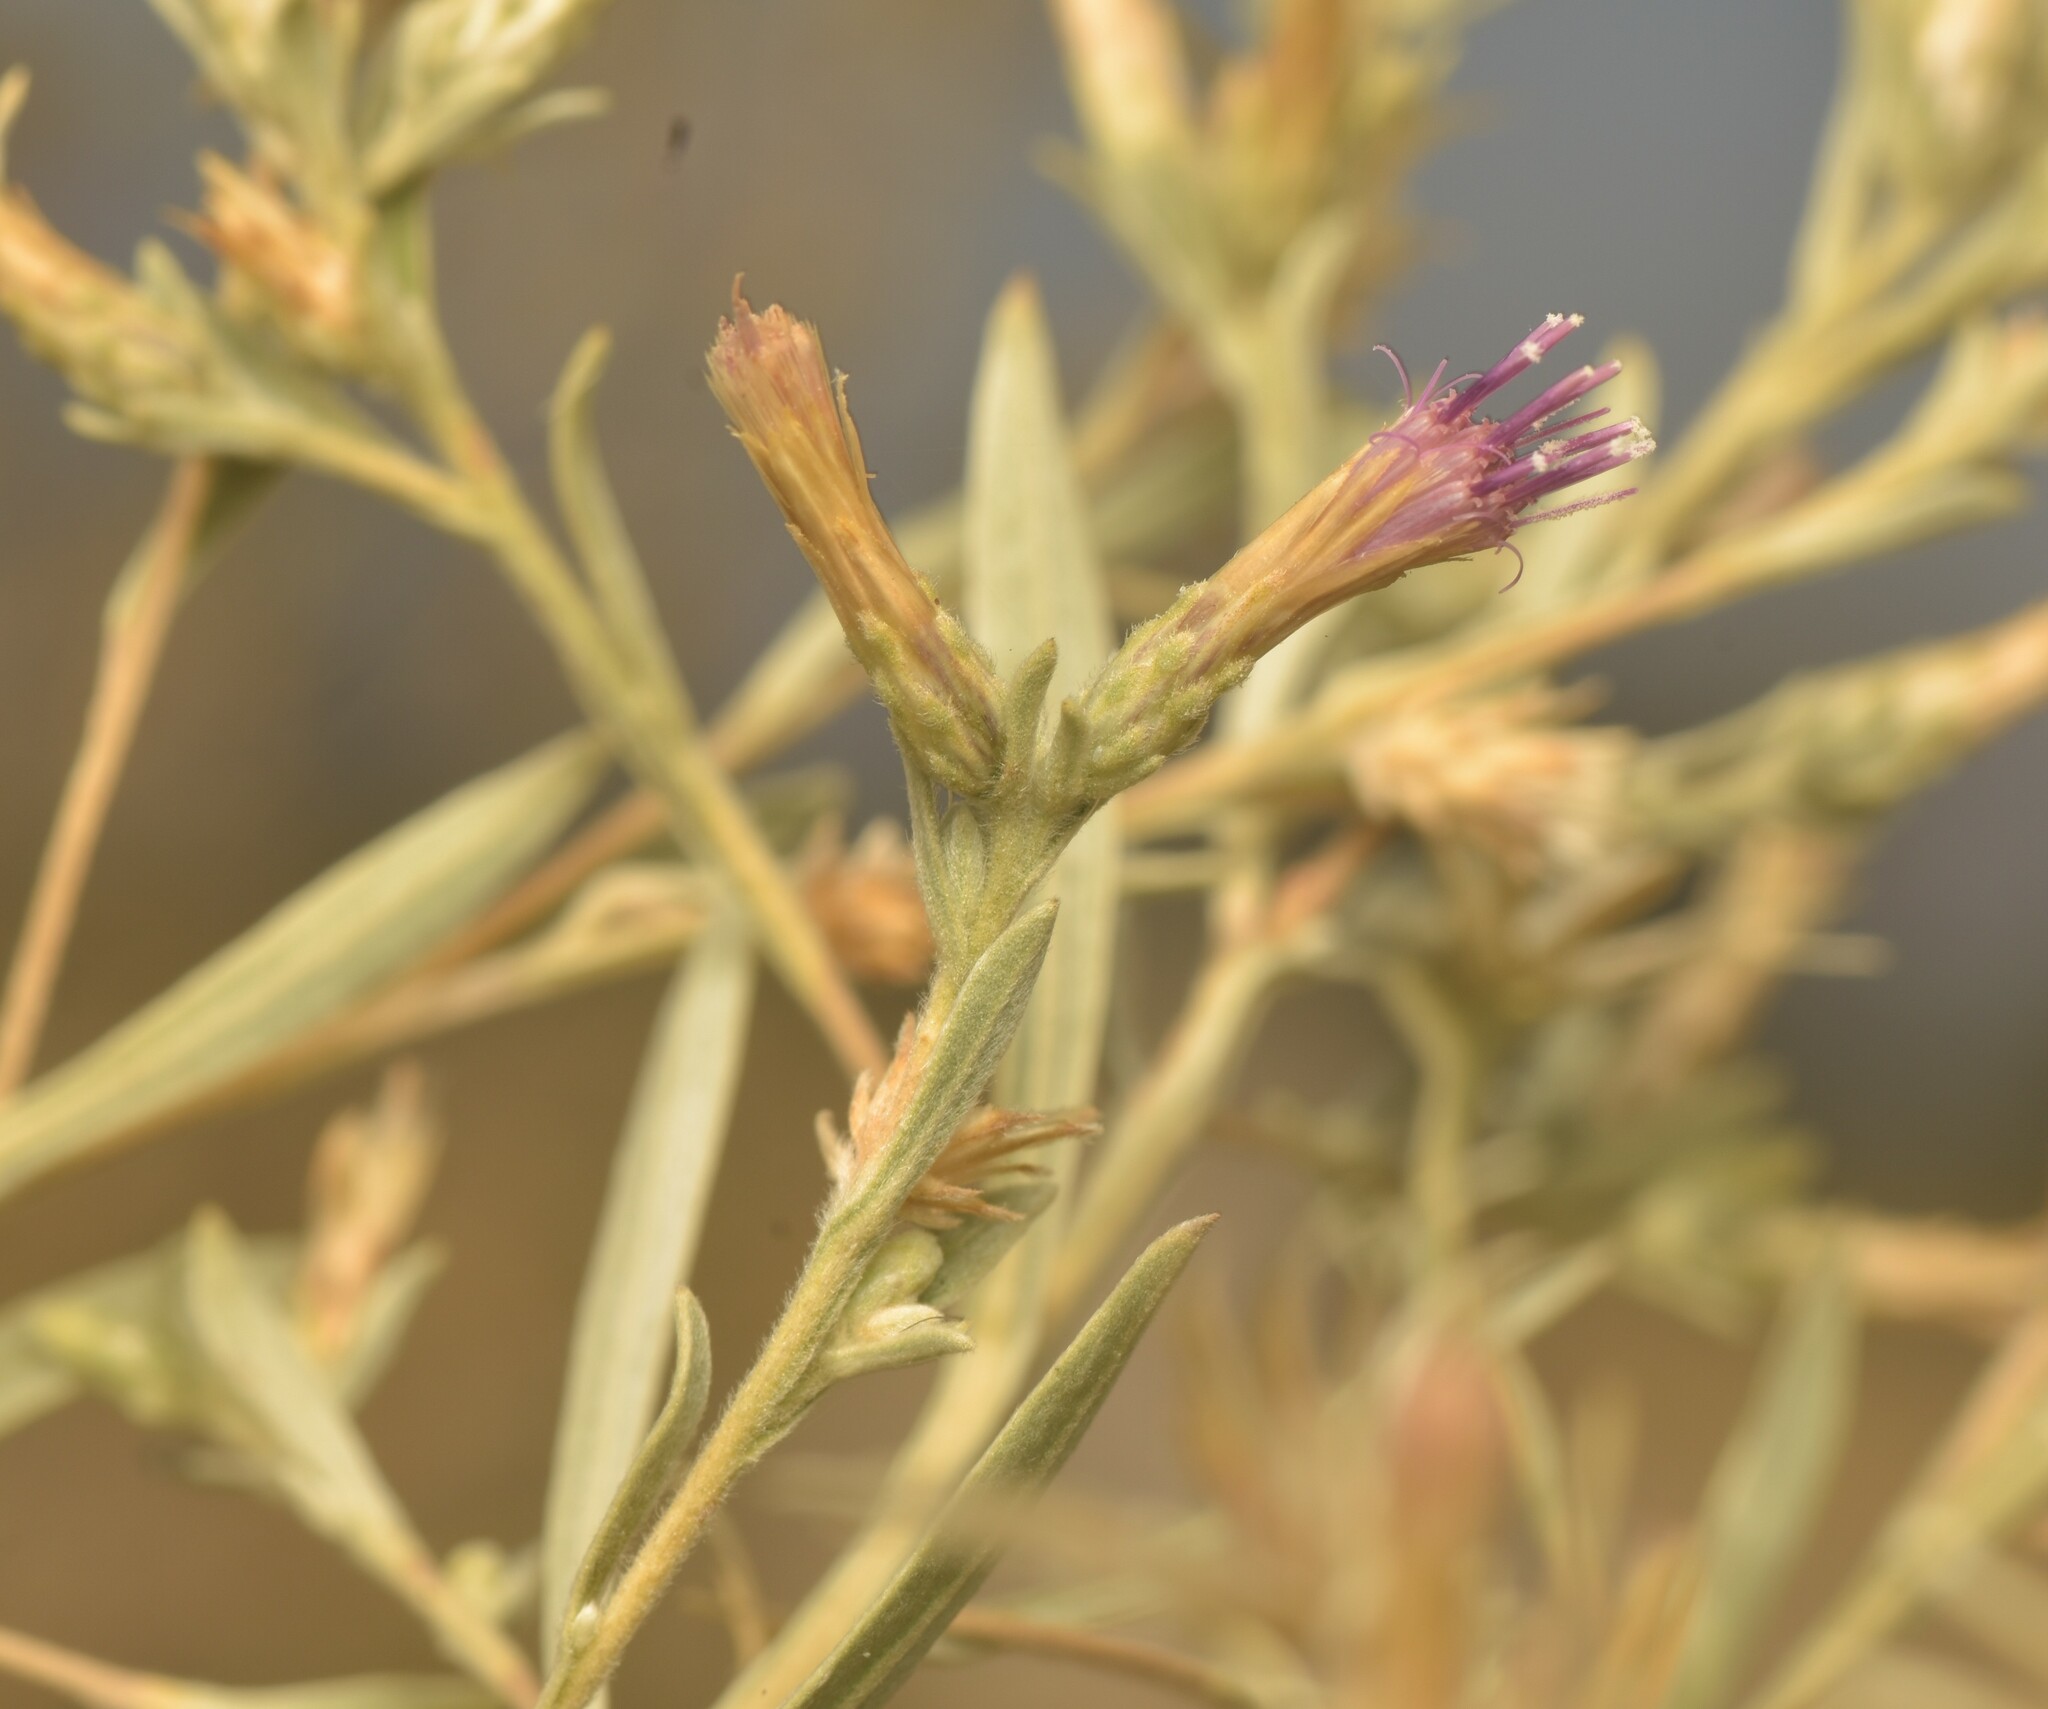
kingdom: Plantae
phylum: Tracheophyta
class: Magnoliopsida
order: Asterales
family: Asteraceae
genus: Pechuel-loeschea
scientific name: Pechuel-loeschea leubnitziae
